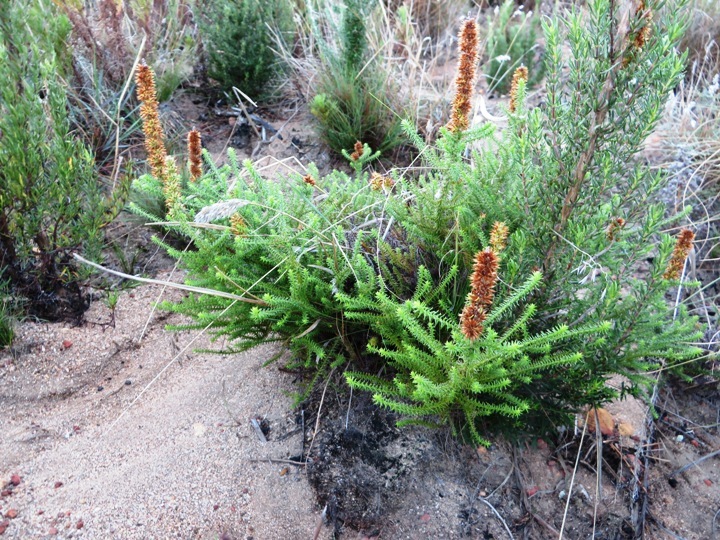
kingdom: Plantae
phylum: Tracheophyta
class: Magnoliopsida
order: Asterales
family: Asteraceae
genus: Seriphium
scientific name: Seriphium plumosum
